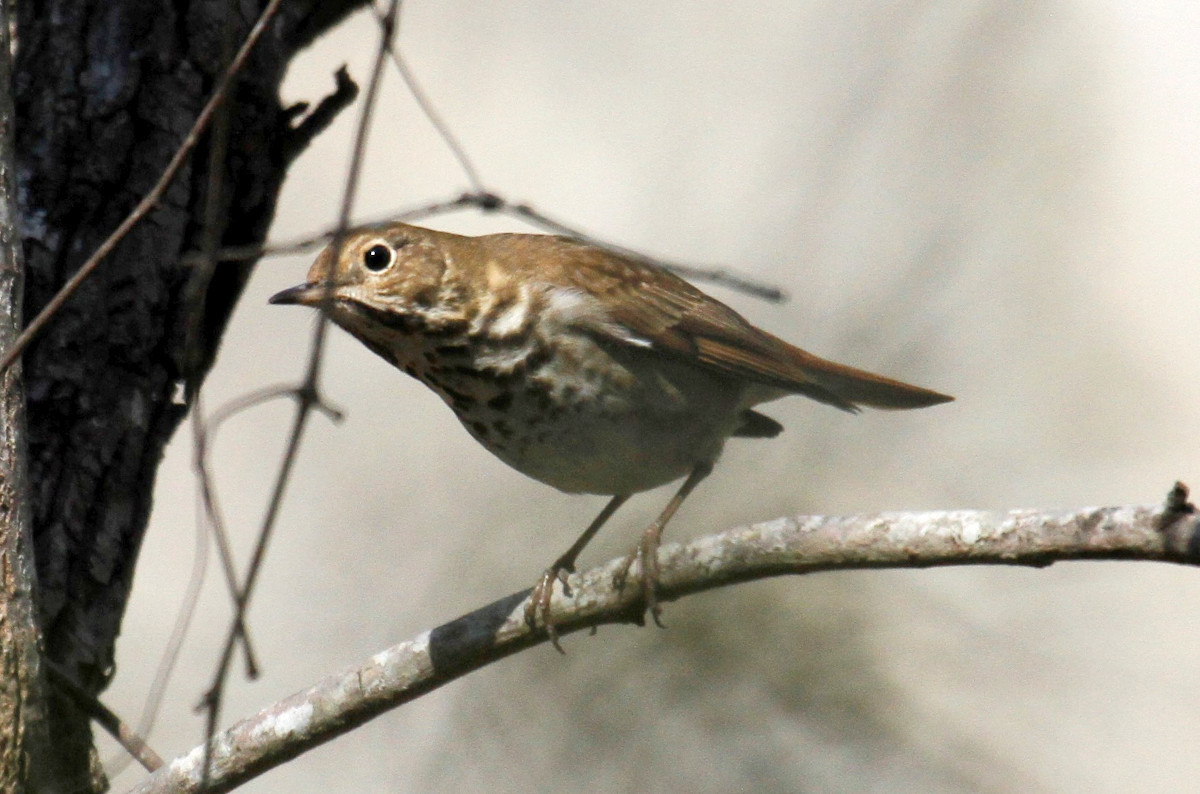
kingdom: Animalia
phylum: Chordata
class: Aves
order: Passeriformes
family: Turdidae
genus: Catharus
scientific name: Catharus guttatus
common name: Hermit thrush
